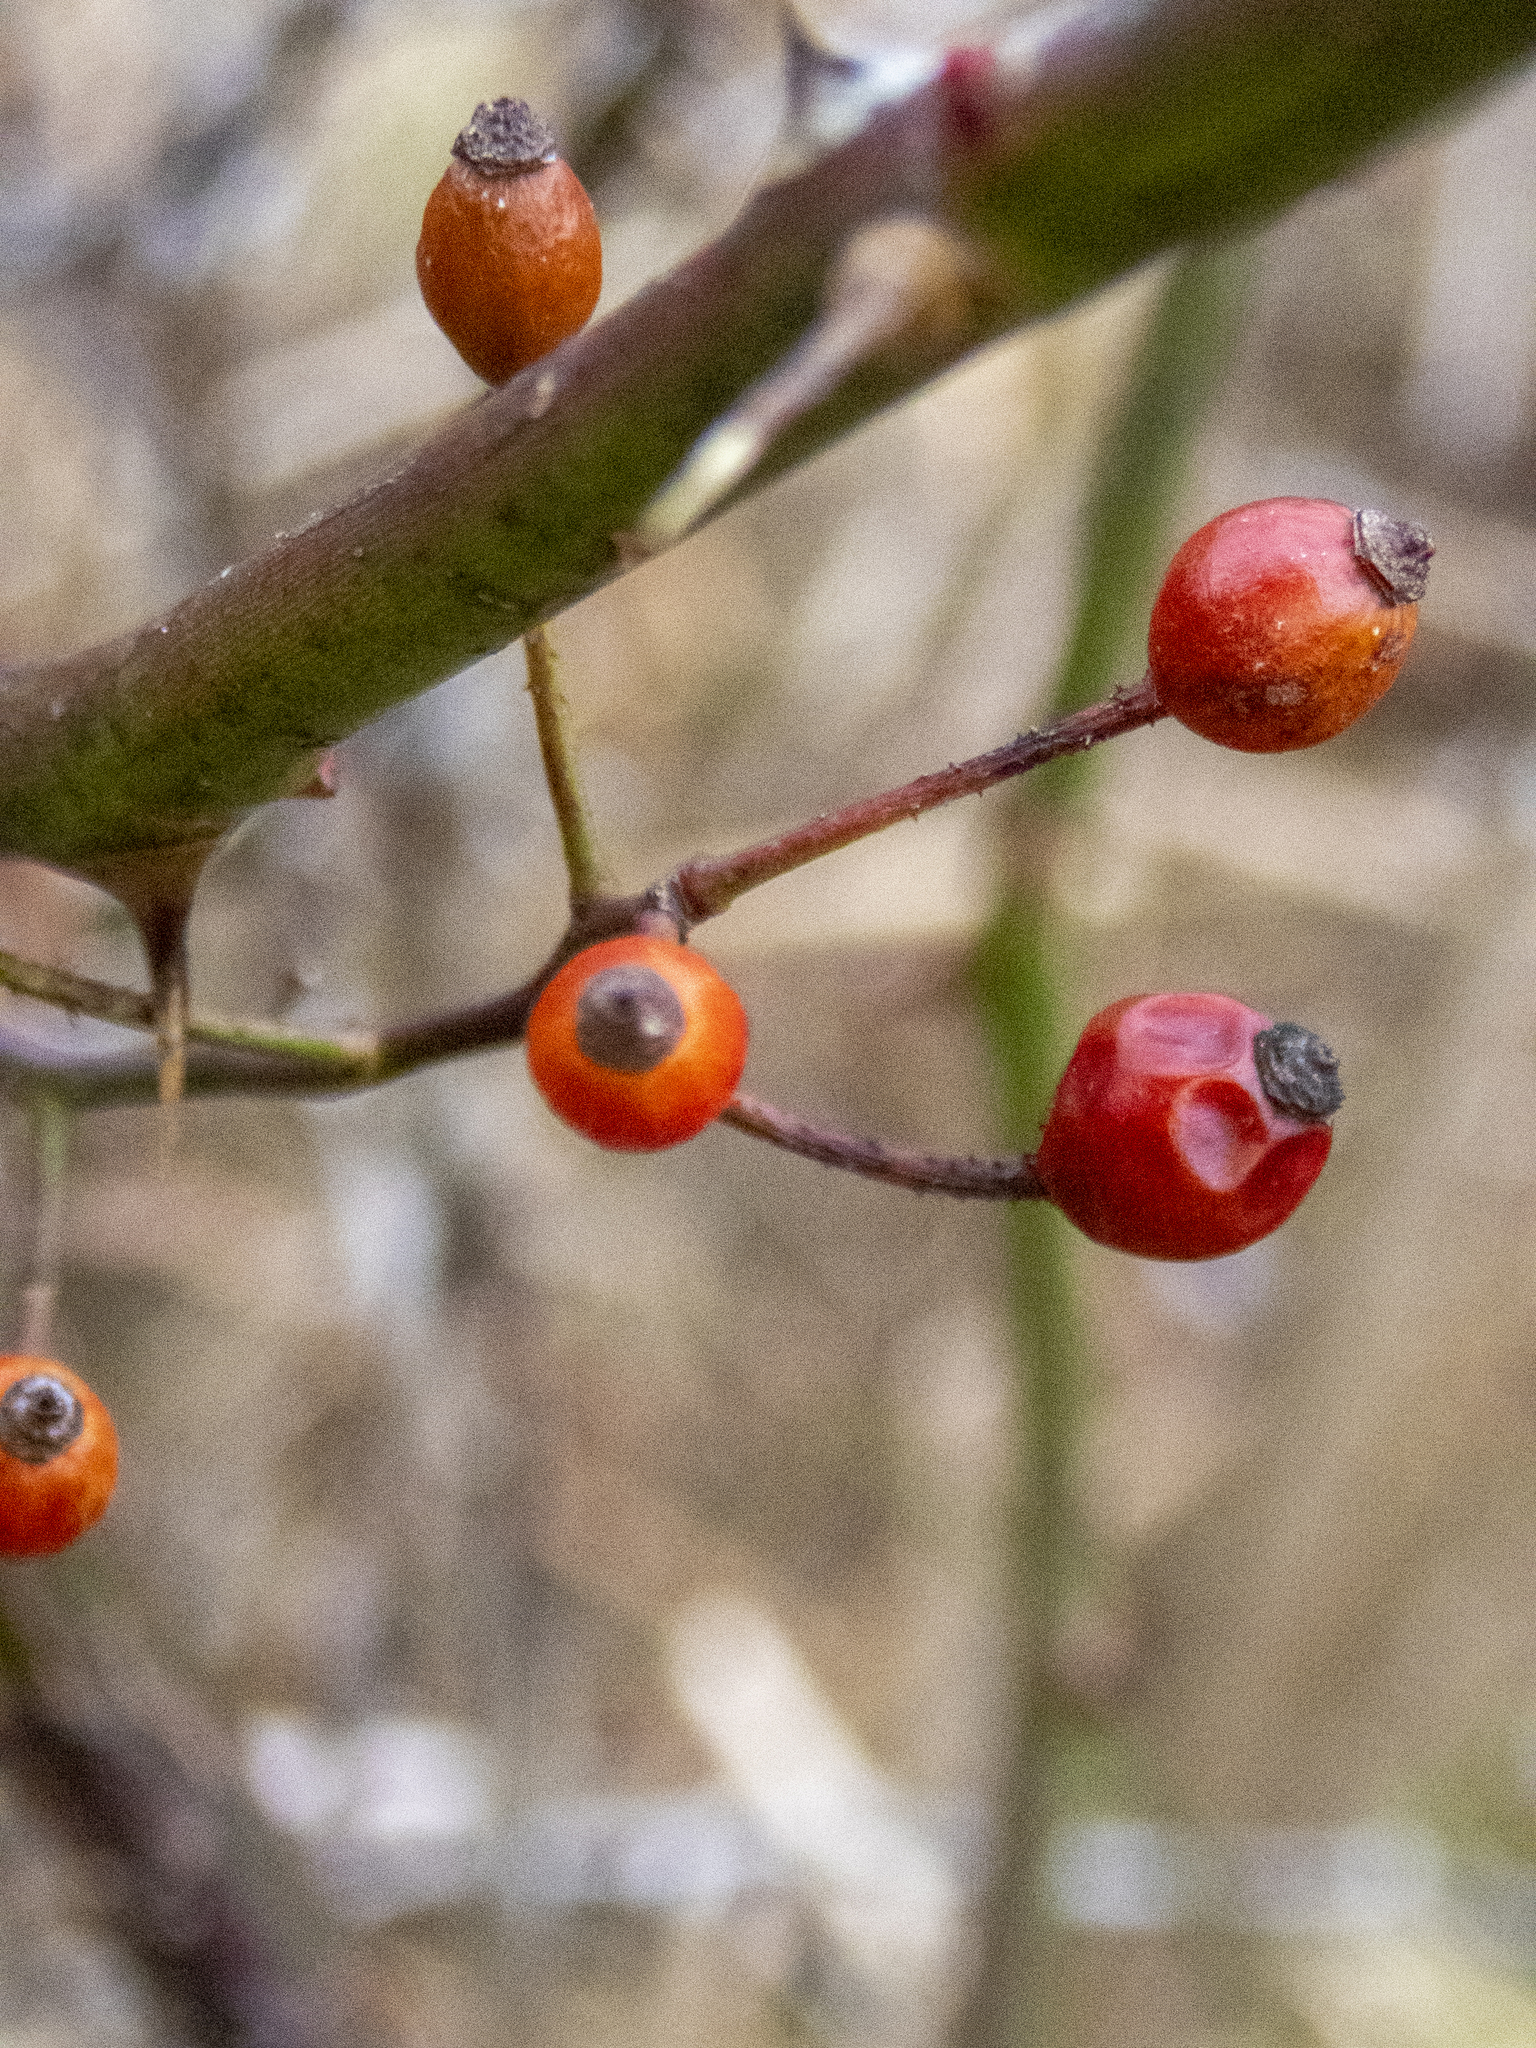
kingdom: Plantae
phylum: Tracheophyta
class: Magnoliopsida
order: Rosales
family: Rosaceae
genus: Rosa
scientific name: Rosa multiflora
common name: Multiflora rose
